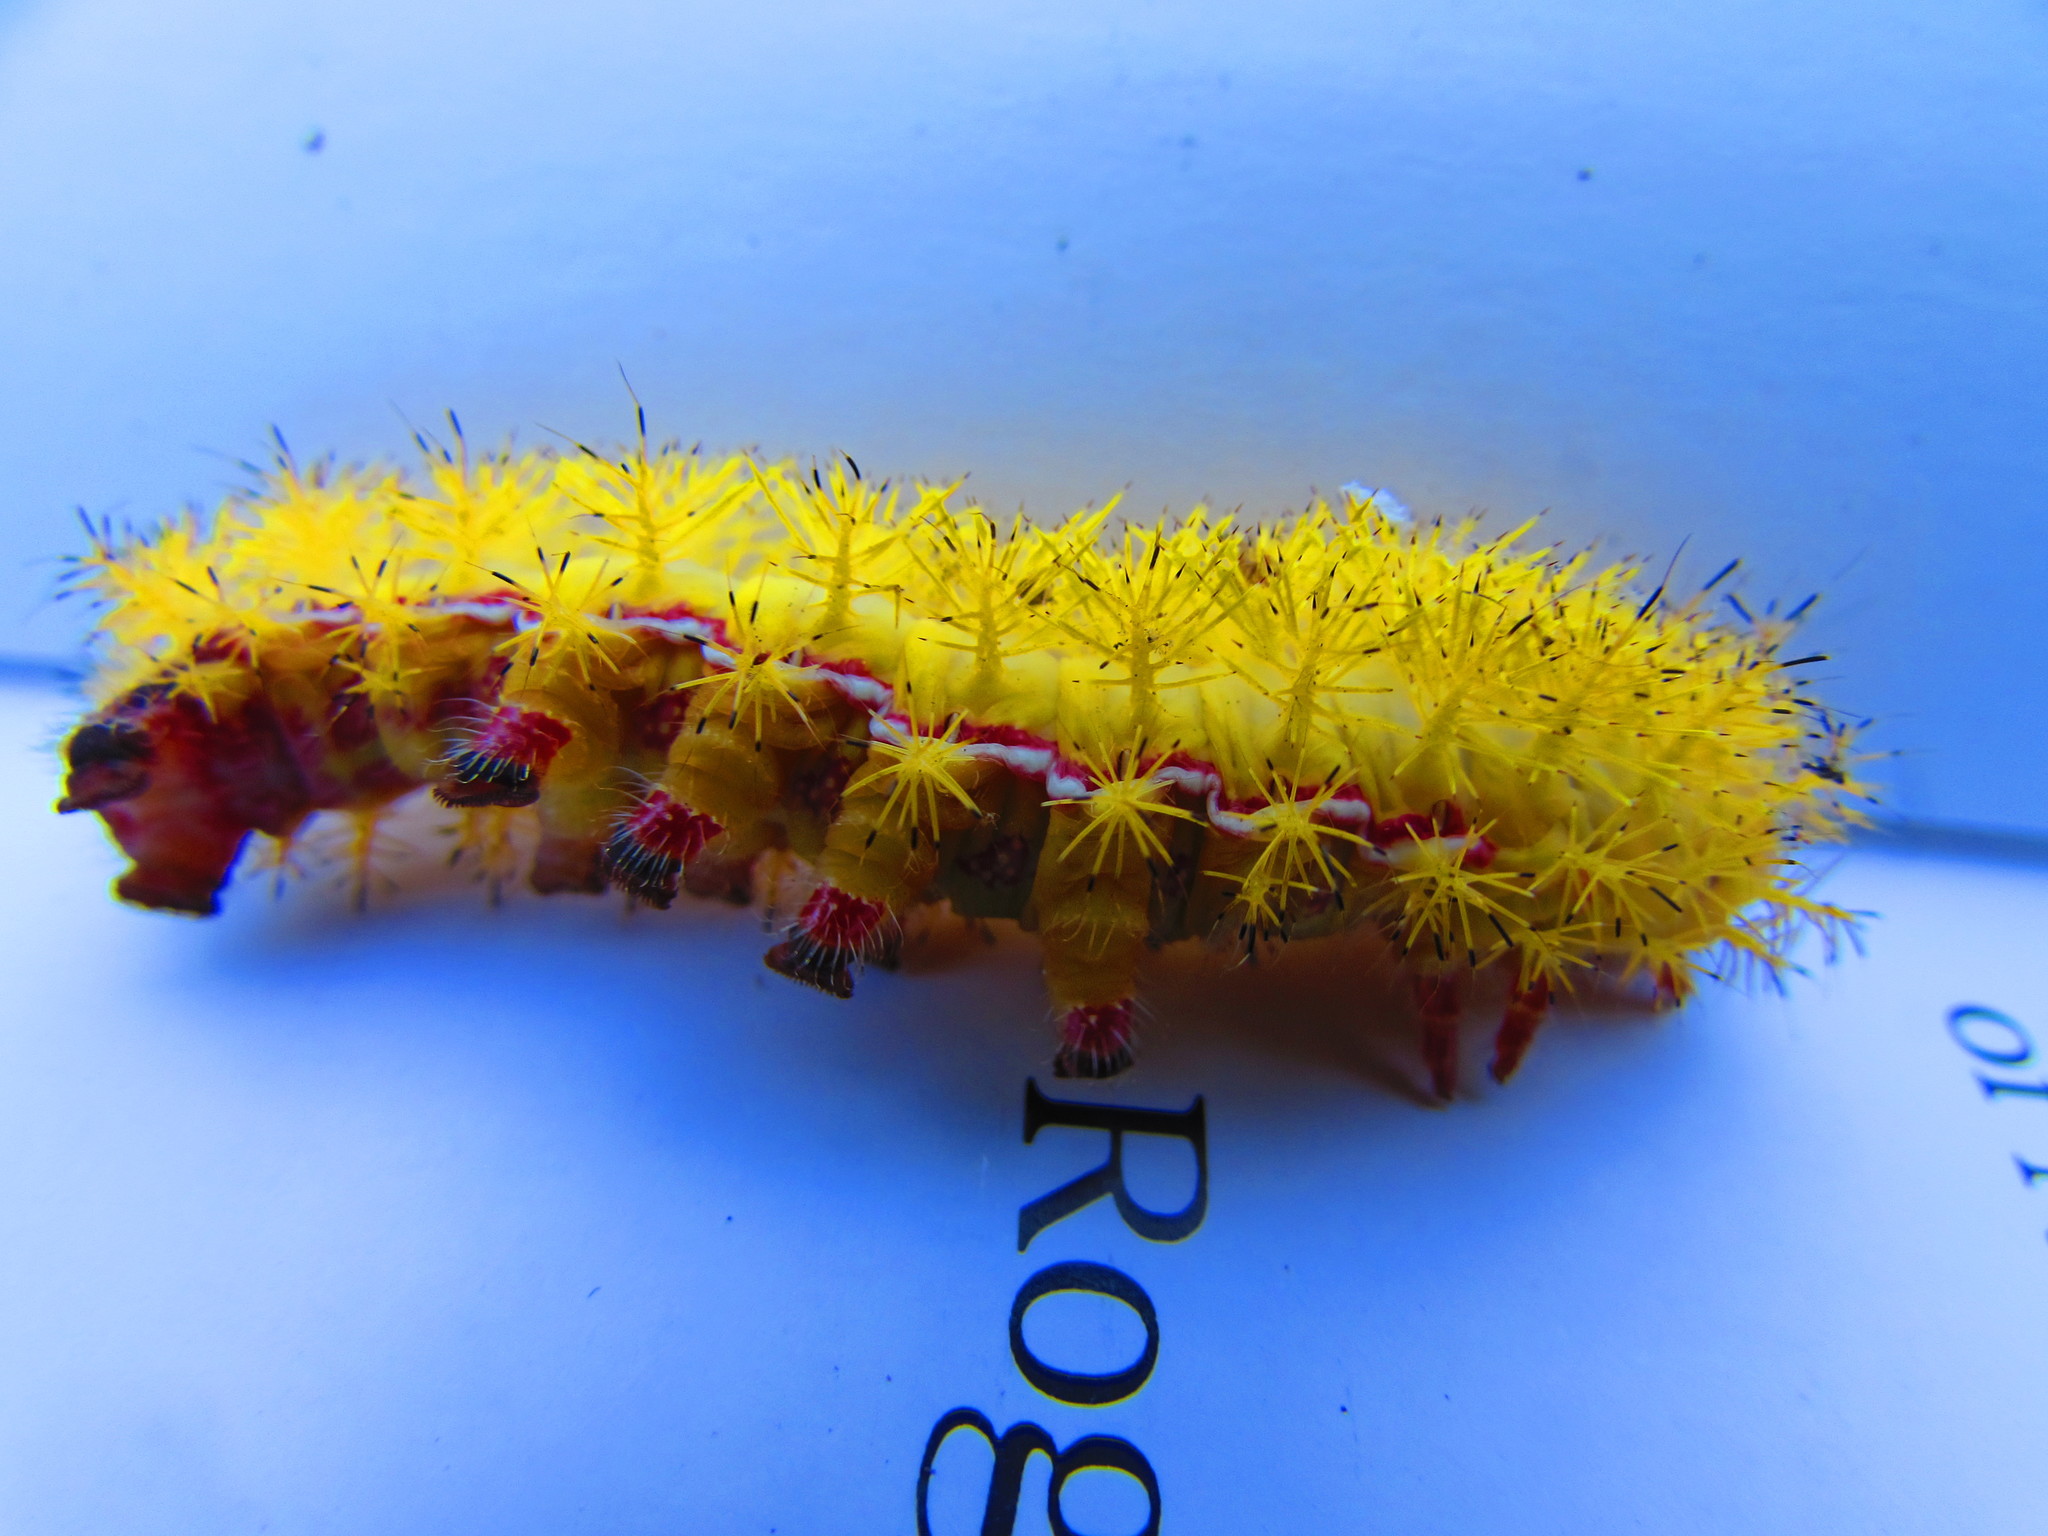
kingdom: Animalia
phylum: Arthropoda
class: Insecta
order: Lepidoptera
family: Saturniidae
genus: Automeris
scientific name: Automeris io
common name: Io moth
